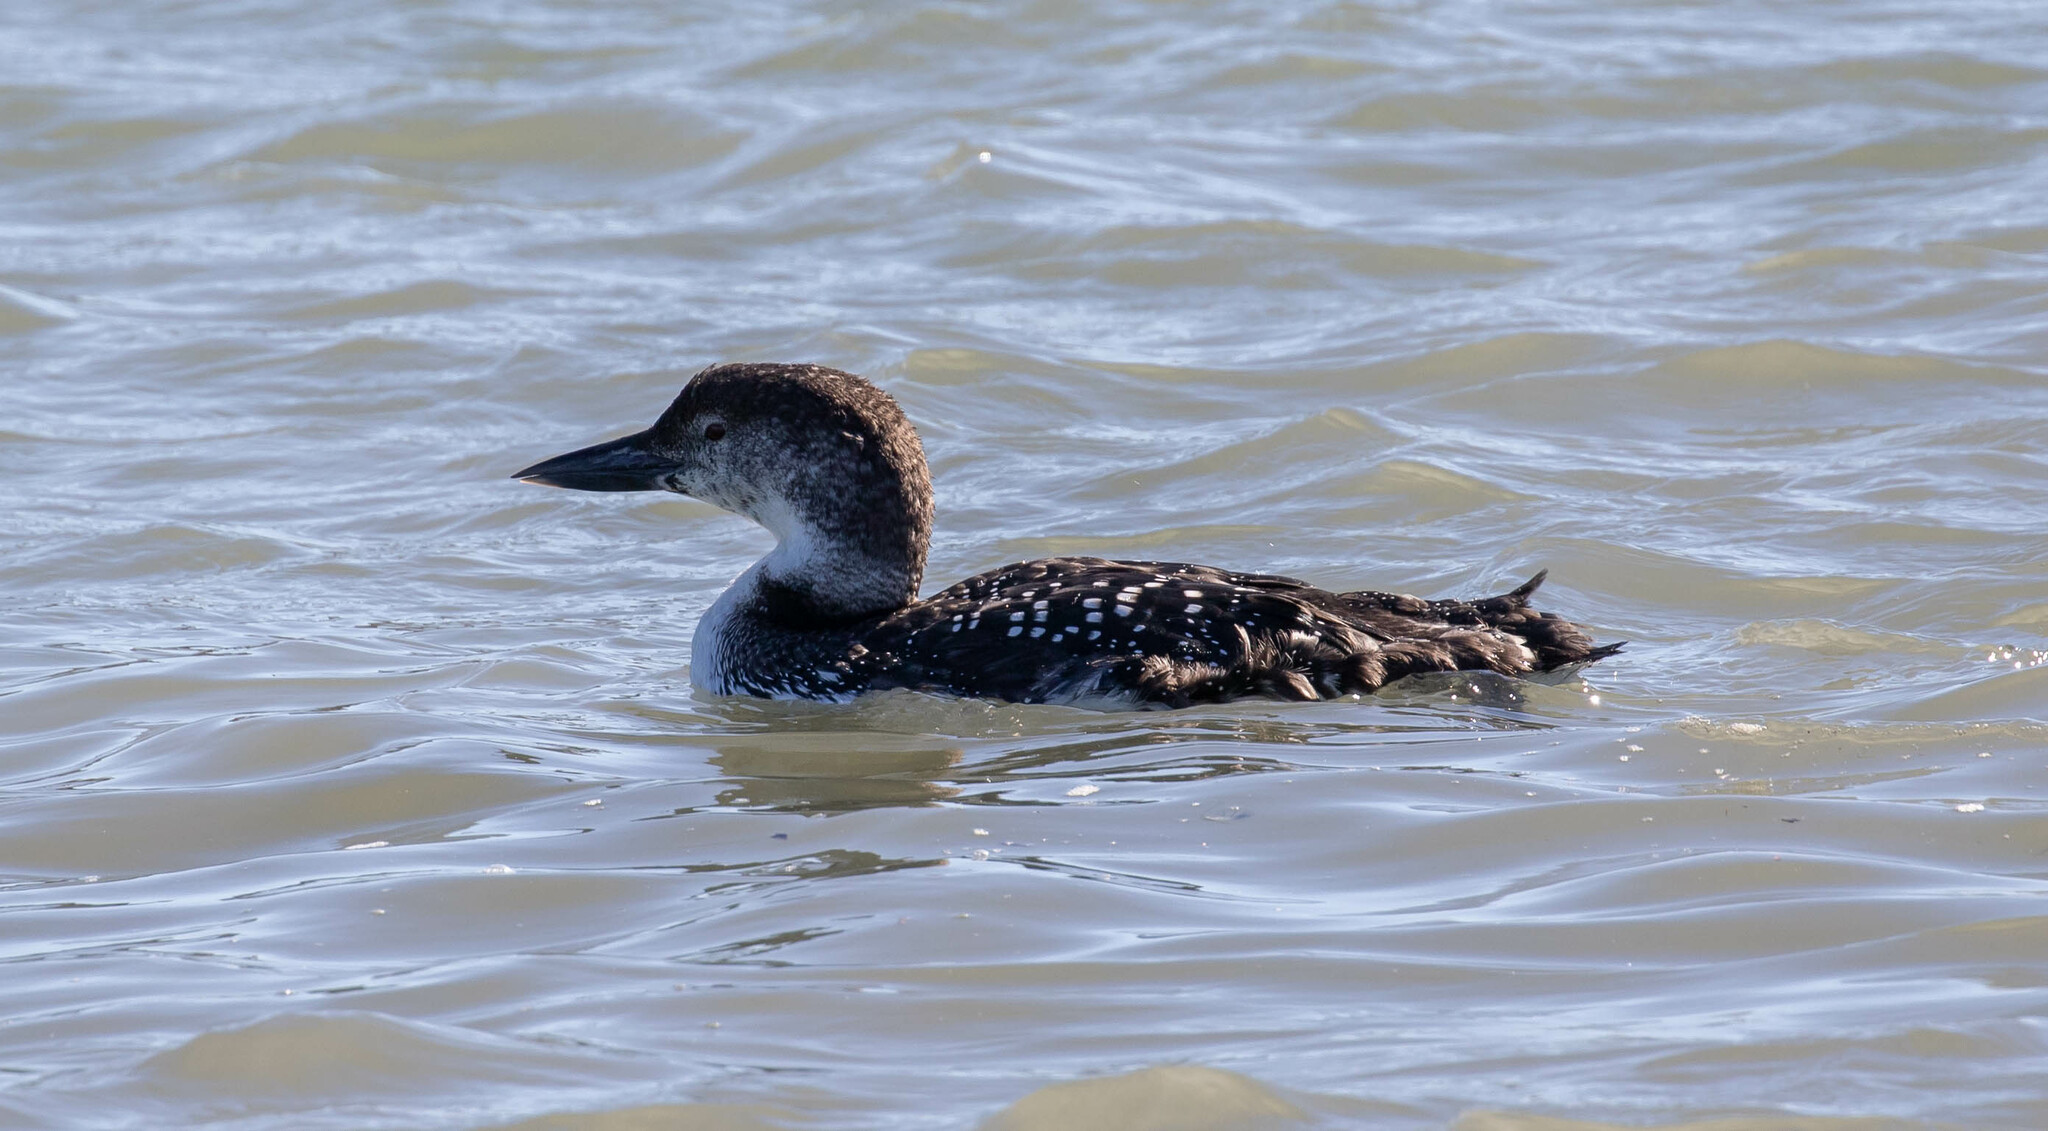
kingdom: Animalia
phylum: Chordata
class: Aves
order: Gaviiformes
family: Gaviidae
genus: Gavia
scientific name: Gavia immer
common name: Common loon
